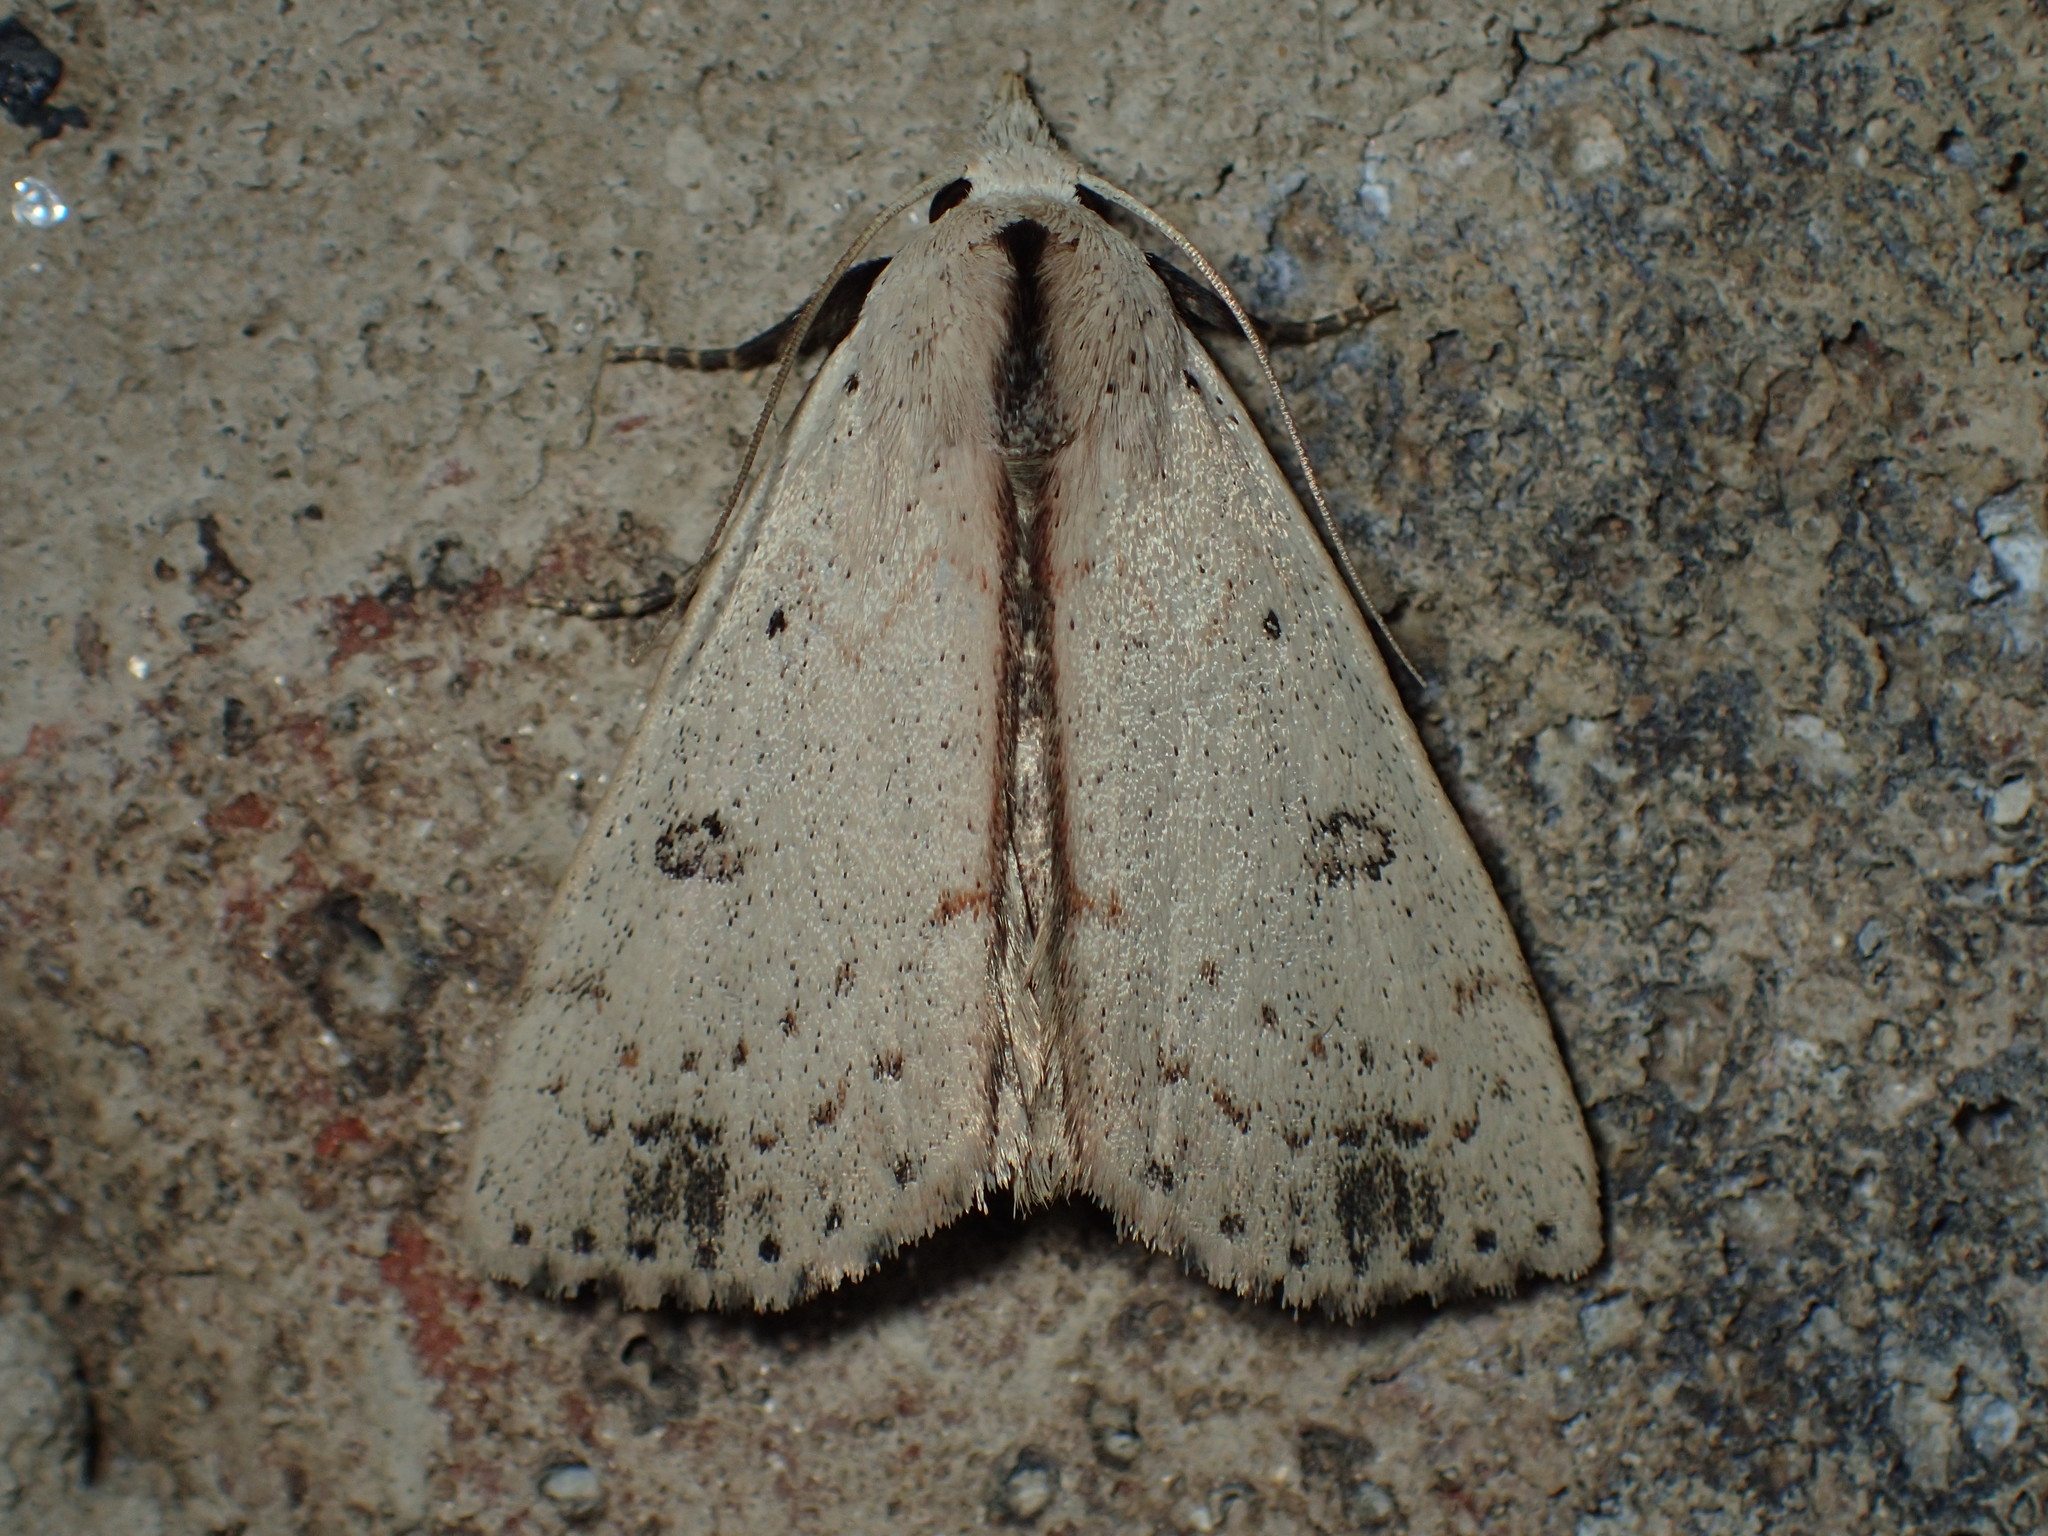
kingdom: Animalia
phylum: Arthropoda
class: Insecta
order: Lepidoptera
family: Erebidae
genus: Scolecocampa
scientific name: Scolecocampa liburna
